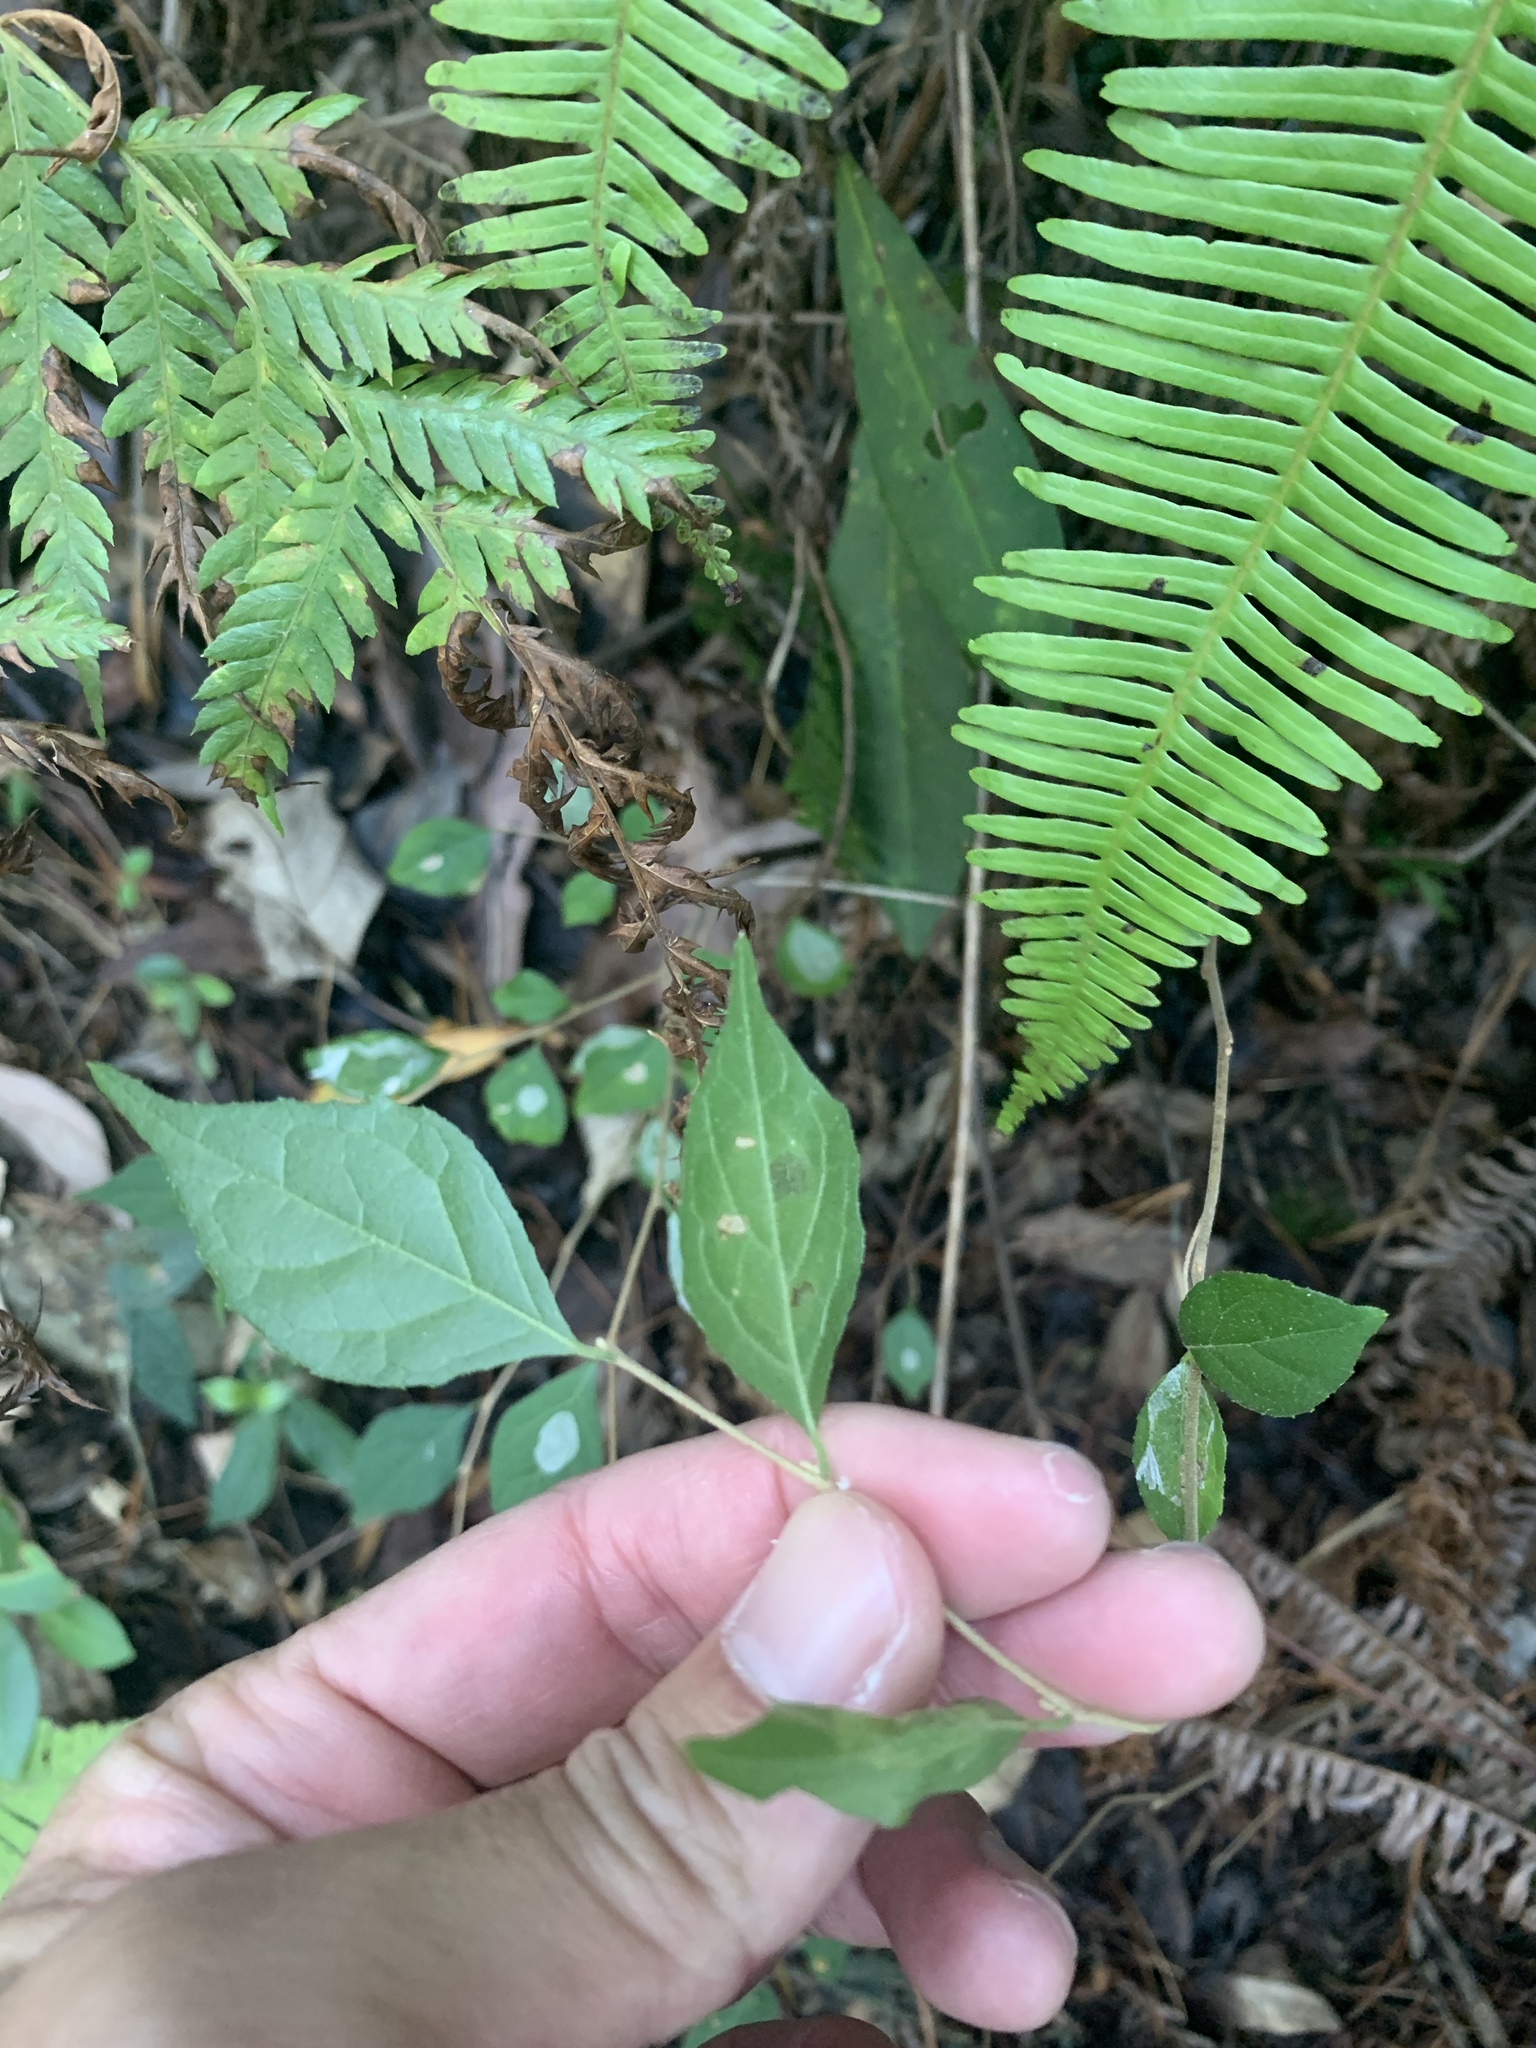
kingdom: Plantae
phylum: Tracheophyta
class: Magnoliopsida
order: Ericales
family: Styracaceae
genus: Styrax
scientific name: Styrax formosanus
